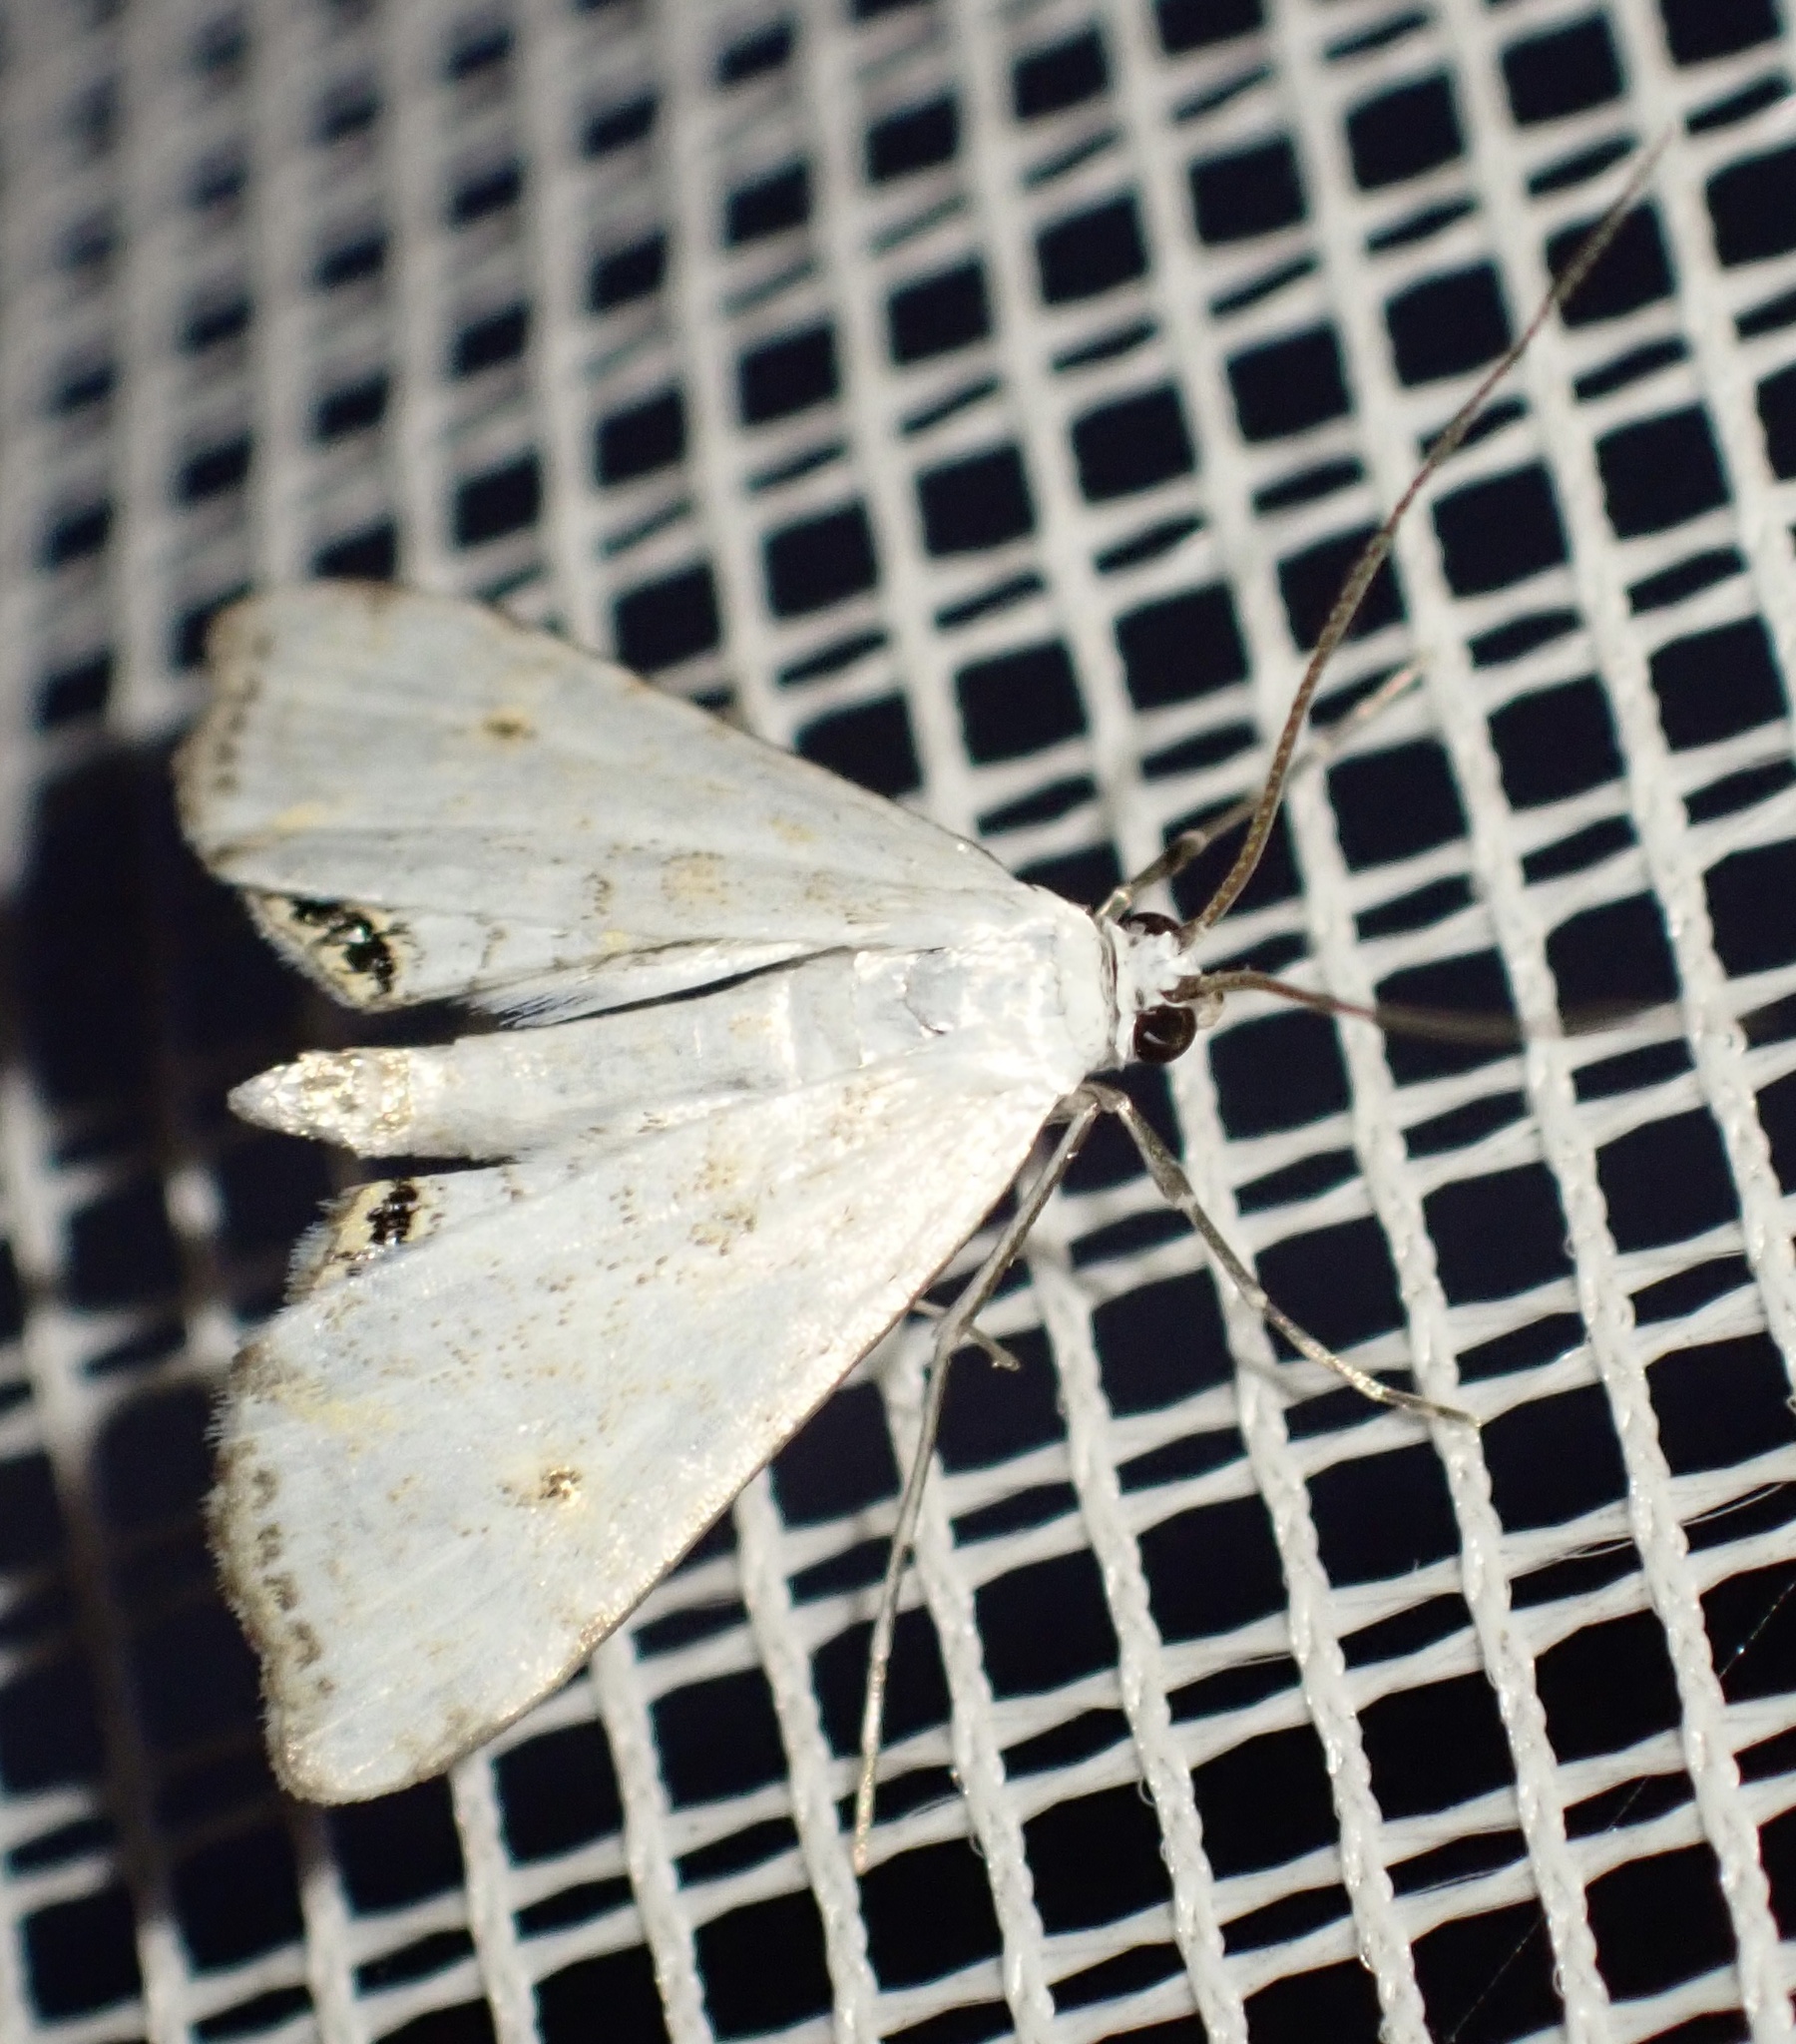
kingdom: Animalia
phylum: Arthropoda
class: Insecta
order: Lepidoptera
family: Crambidae
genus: Cataclysta
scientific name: Cataclysta lemnata
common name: Small china-mark
